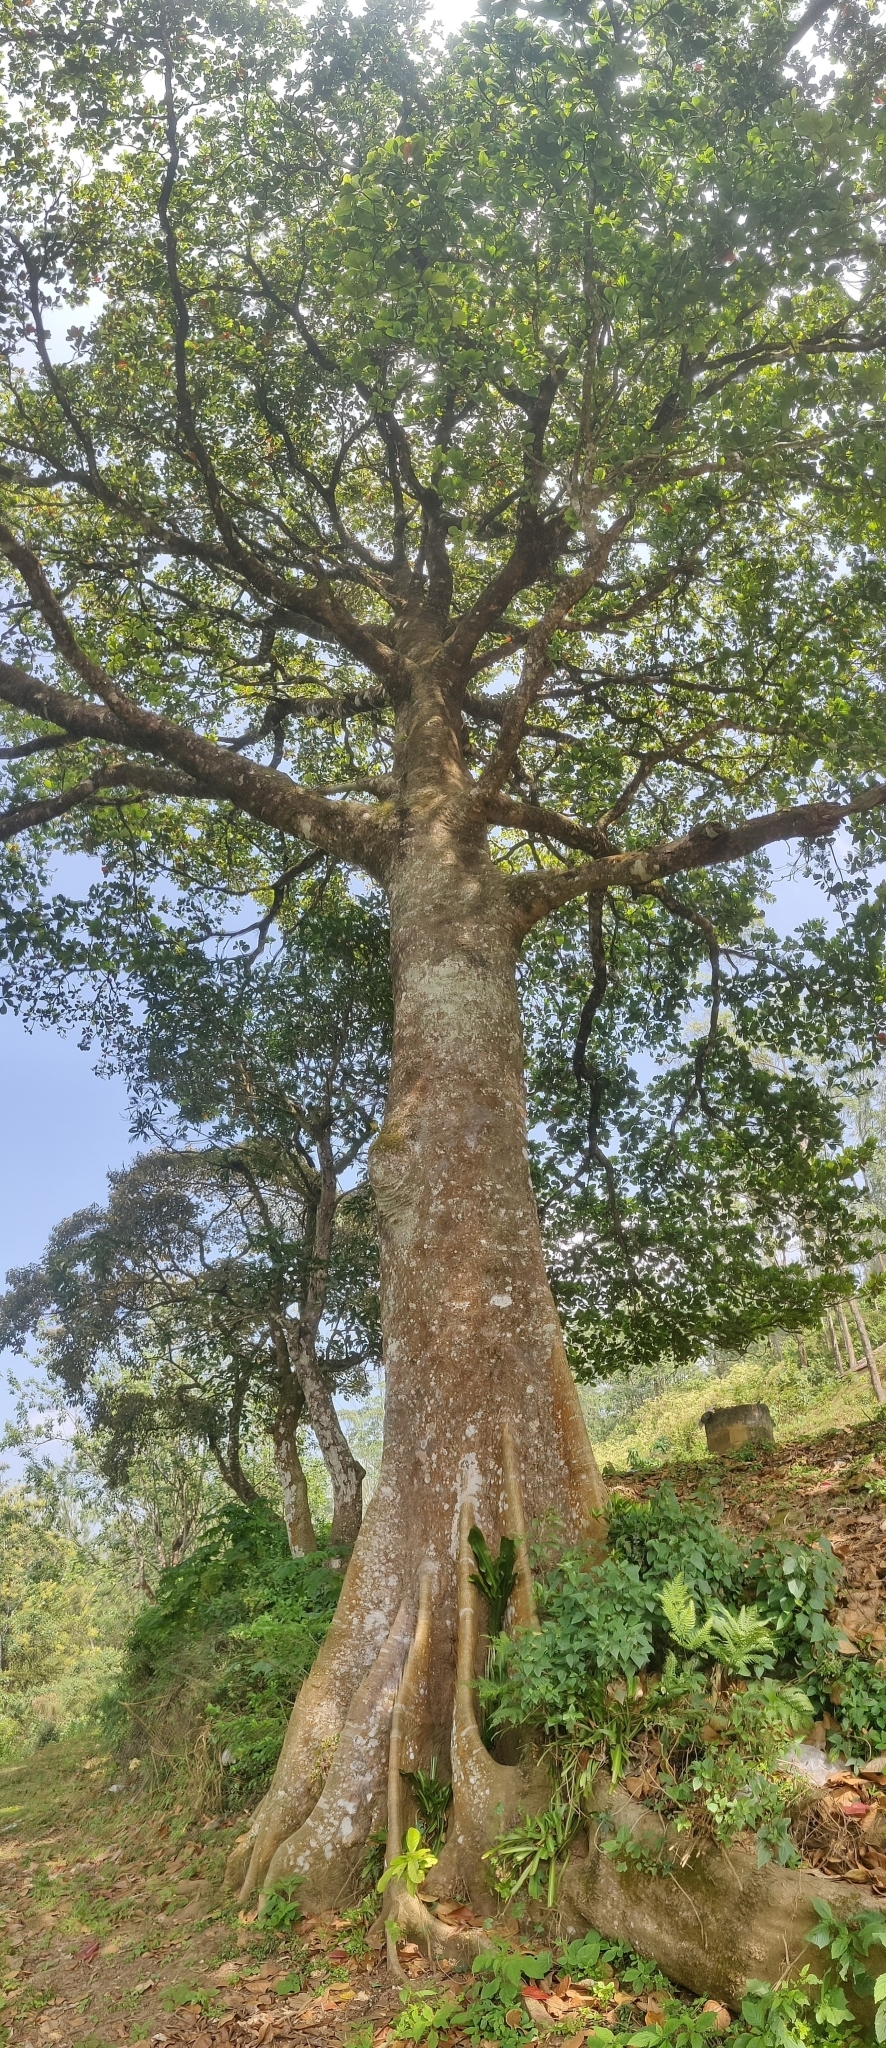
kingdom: Plantae
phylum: Tracheophyta
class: Magnoliopsida
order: Oxalidales
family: Elaeocarpaceae
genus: Elaeocarpus
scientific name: Elaeocarpus tuberculatus
